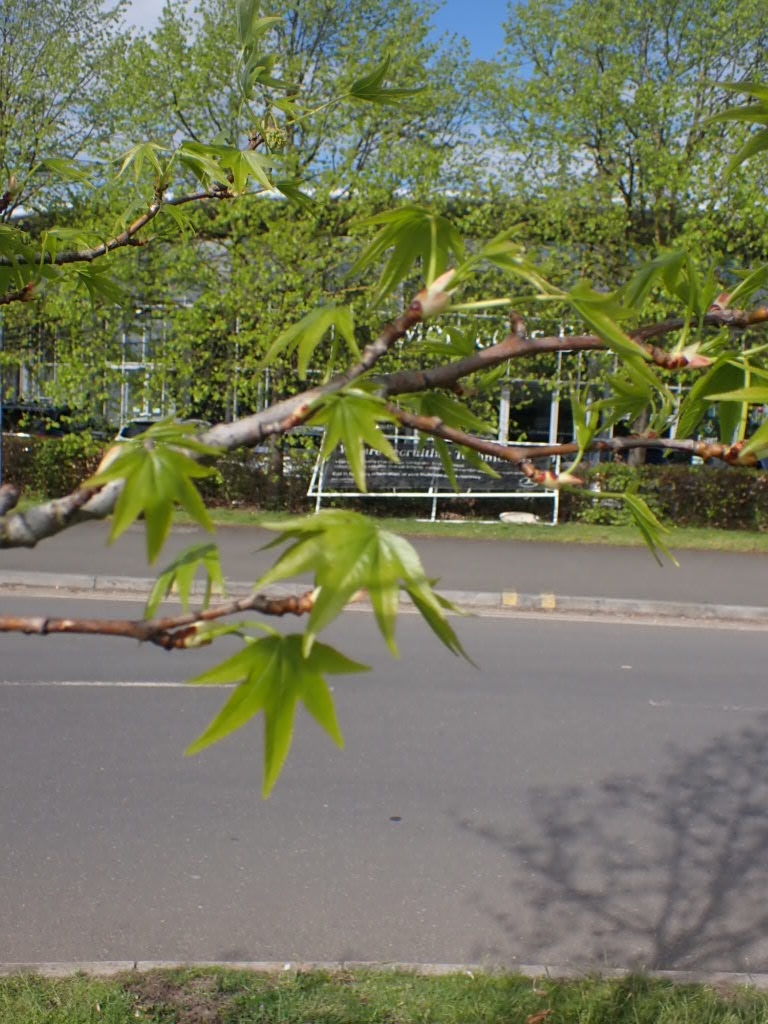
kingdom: Plantae
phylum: Tracheophyta
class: Magnoliopsida
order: Saxifragales
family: Altingiaceae
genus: Liquidambar
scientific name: Liquidambar styraciflua
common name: Sweet gum
